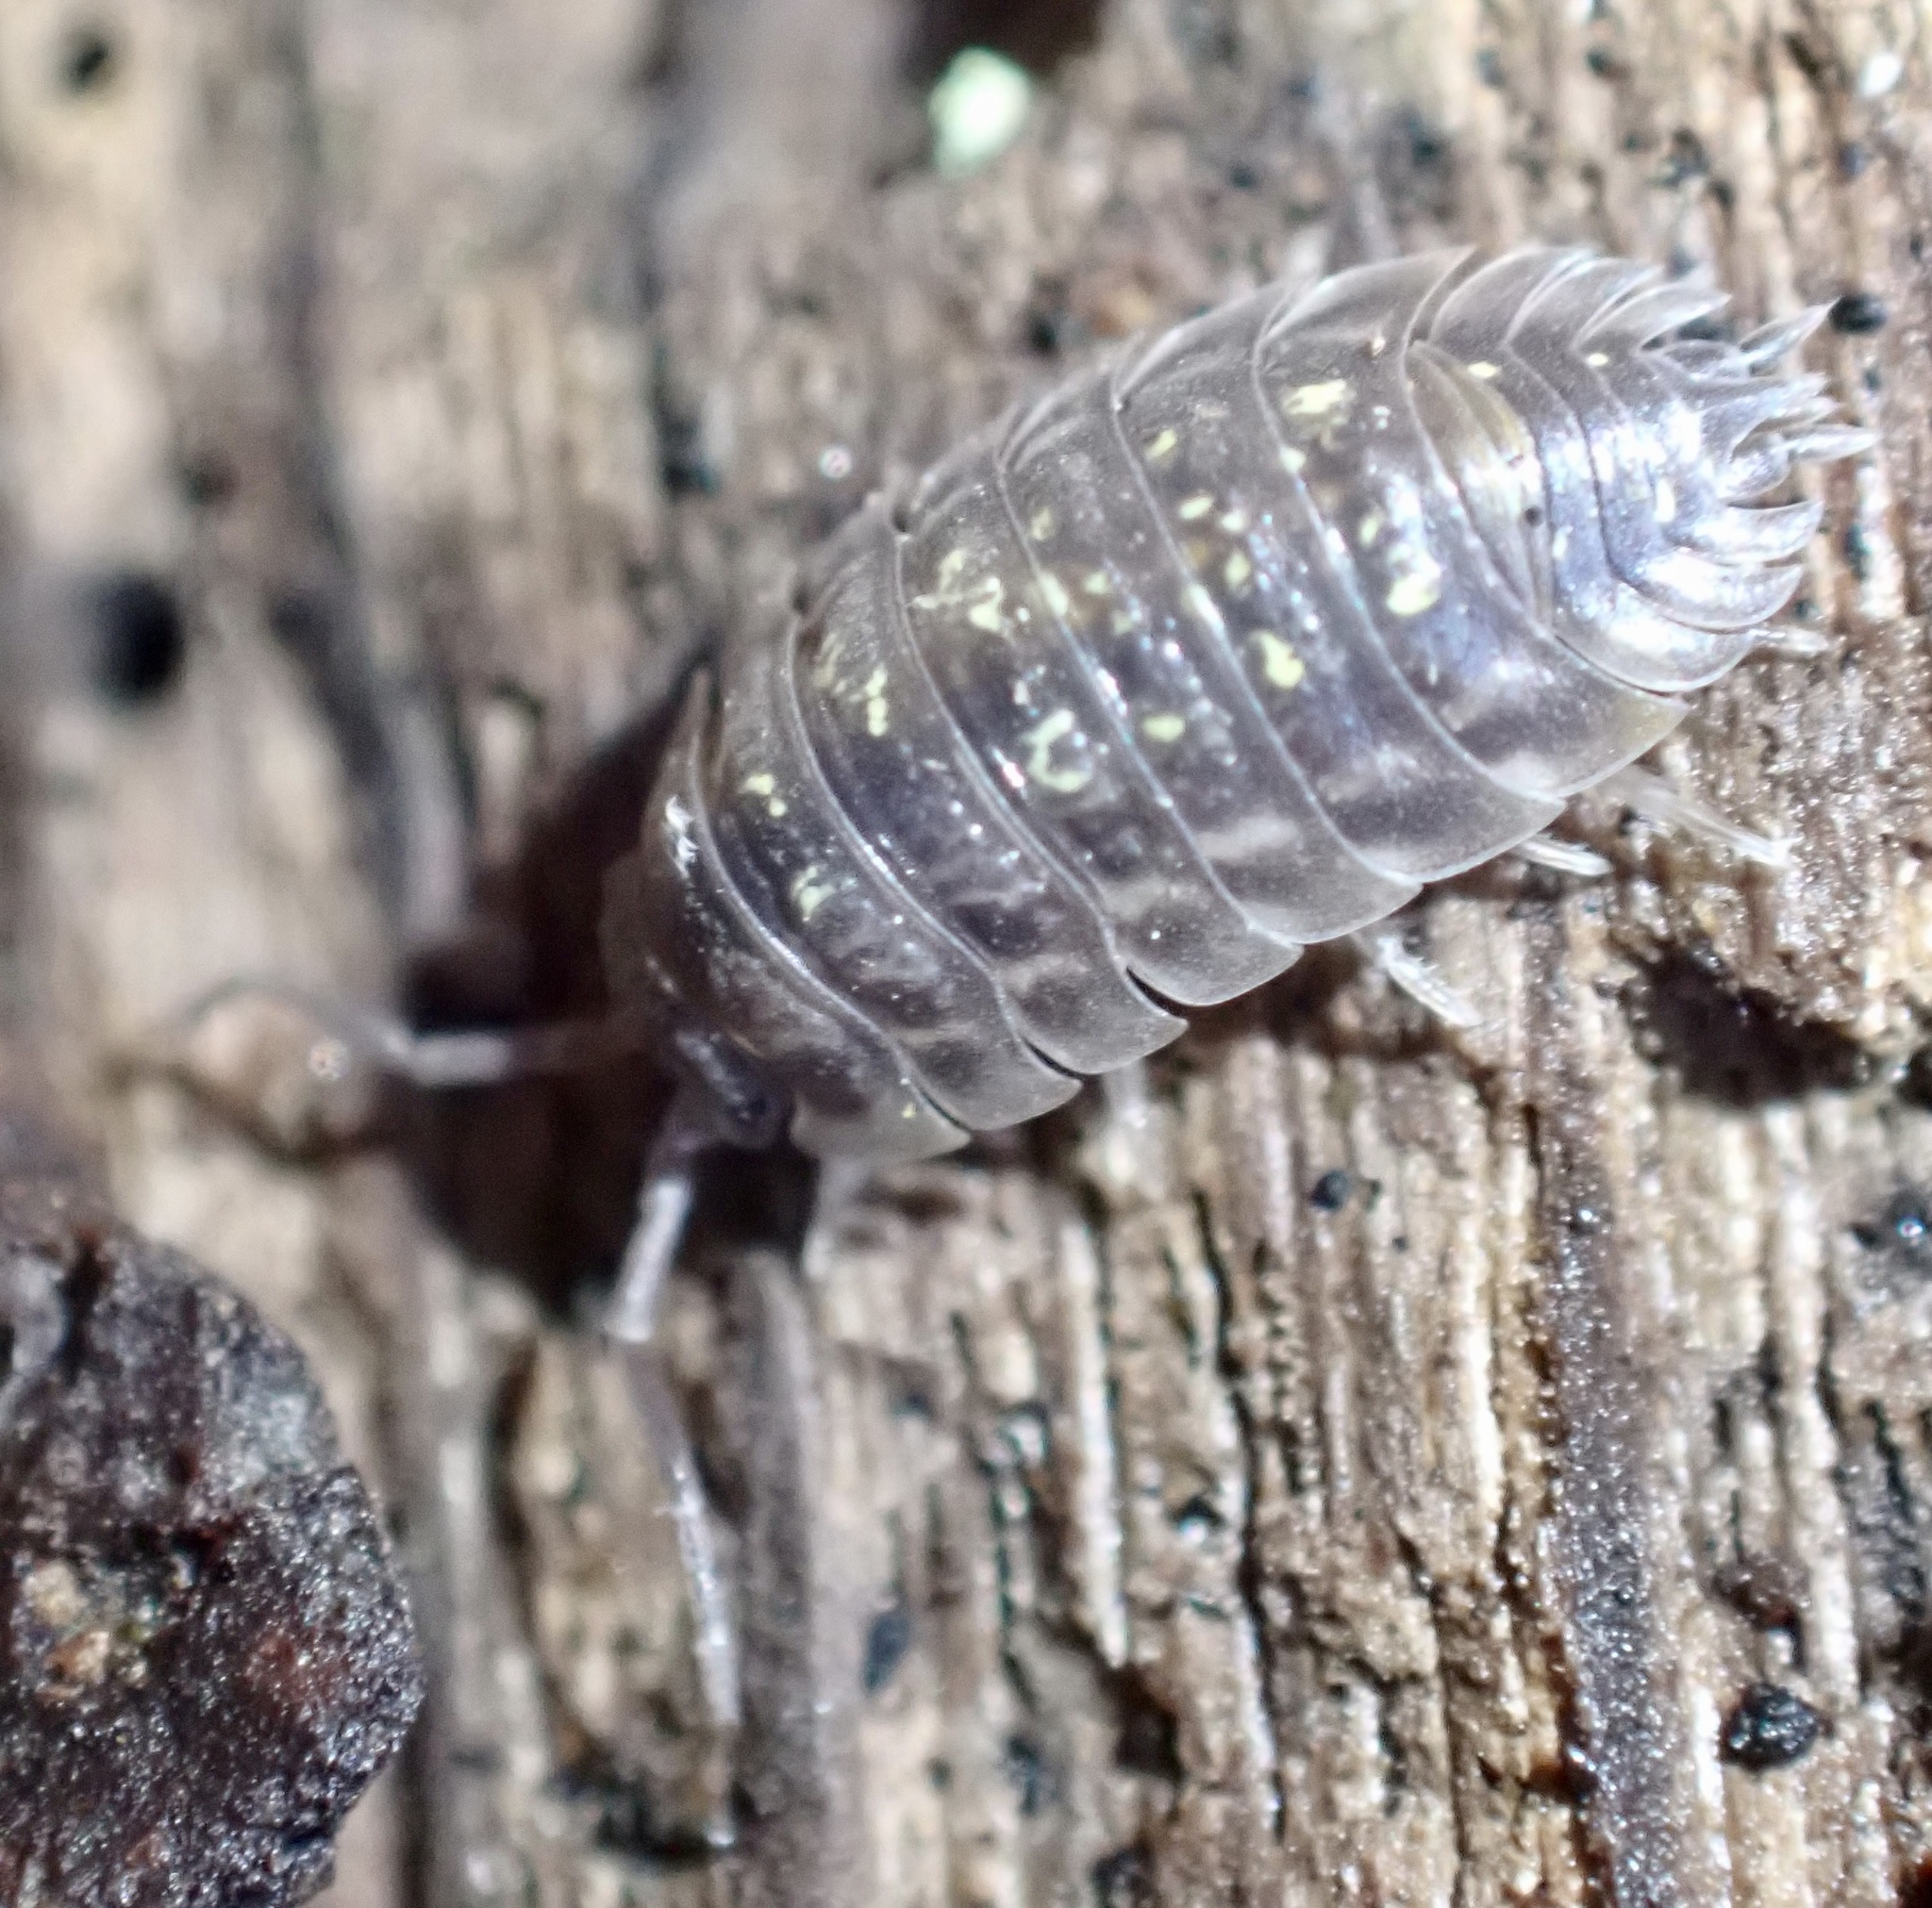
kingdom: Animalia
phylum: Arthropoda
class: Malacostraca
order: Isopoda
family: Oniscidae
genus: Oniscus
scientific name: Oniscus asellus
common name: Common shiny woodlouse
